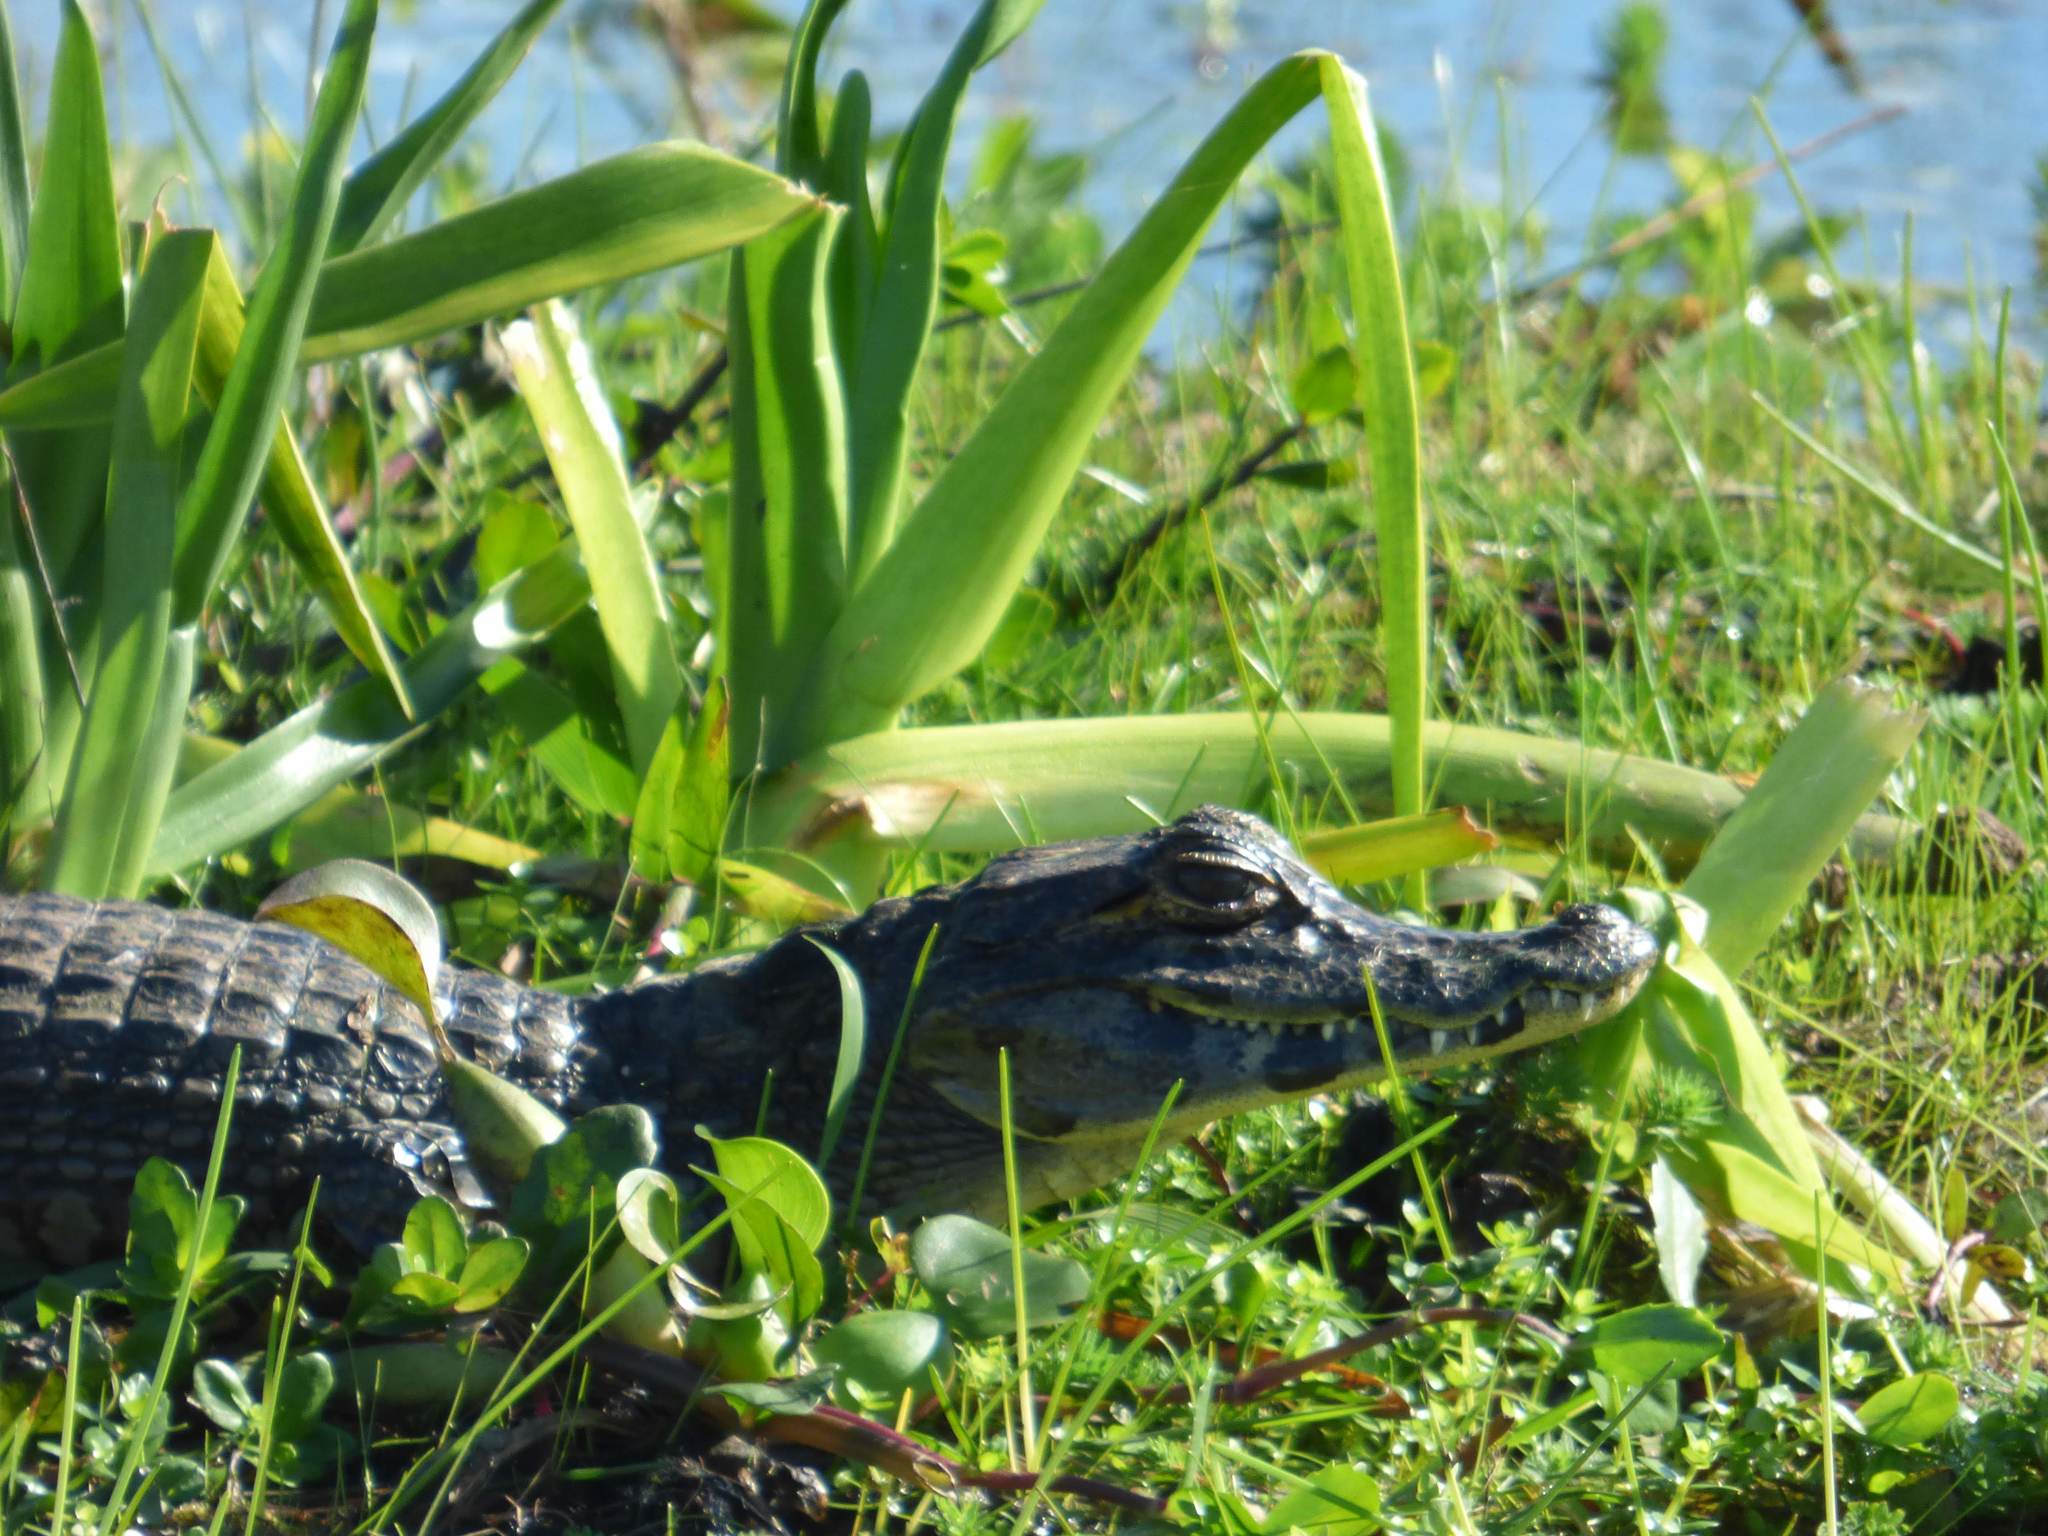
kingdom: Animalia
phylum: Chordata
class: Crocodylia
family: Alligatoridae
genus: Caiman
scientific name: Caiman yacare
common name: Yacare caiman
